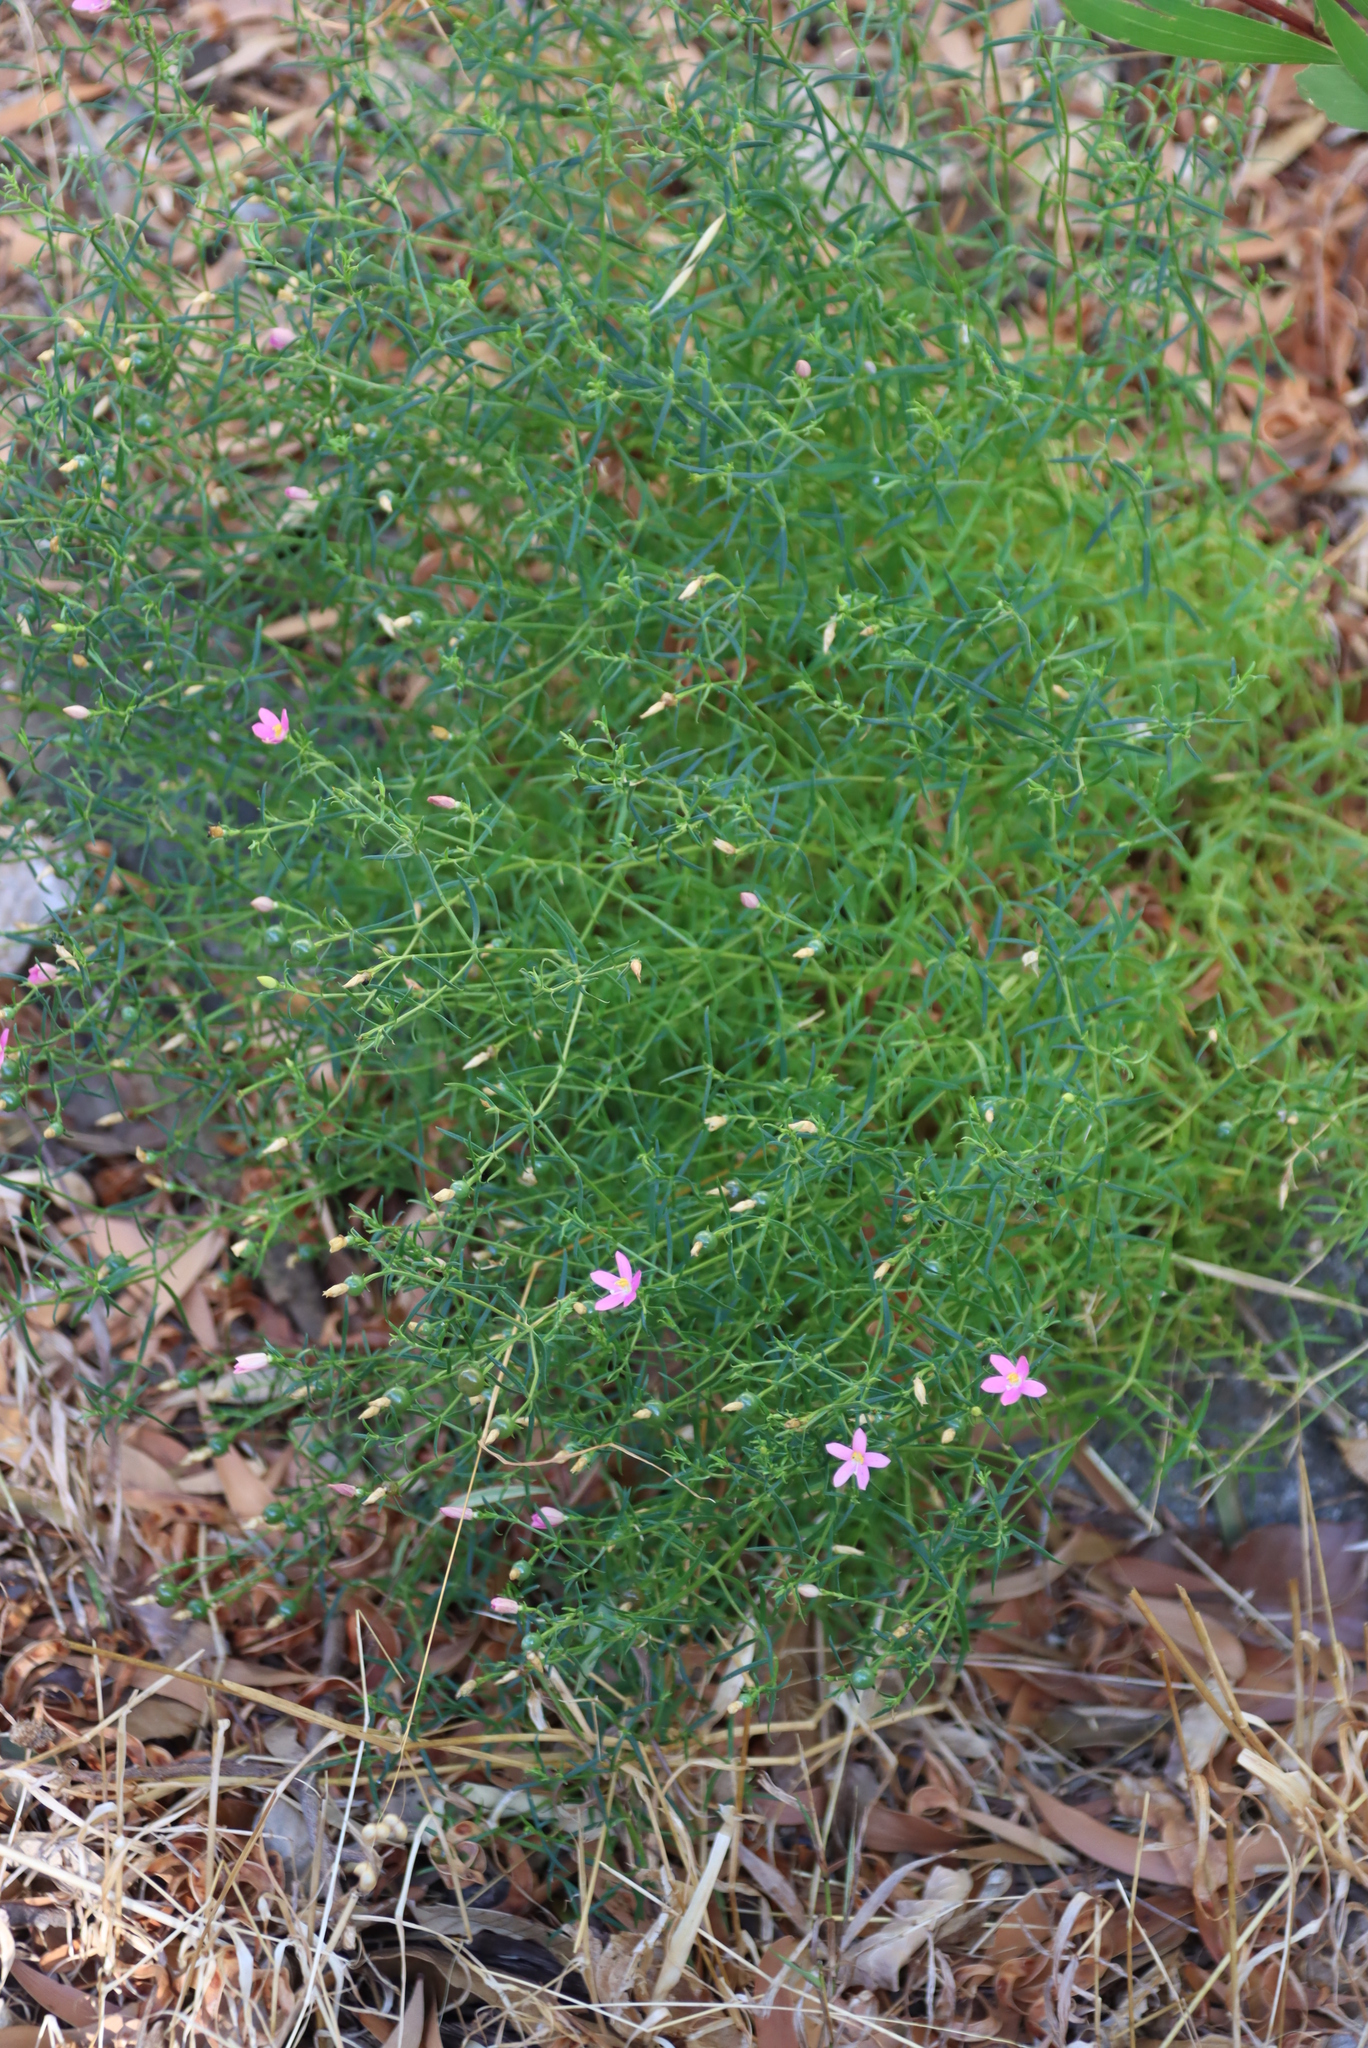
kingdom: Plantae
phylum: Tracheophyta
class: Magnoliopsida
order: Gentianales
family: Gentianaceae
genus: Chironia
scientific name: Chironia baccifera
